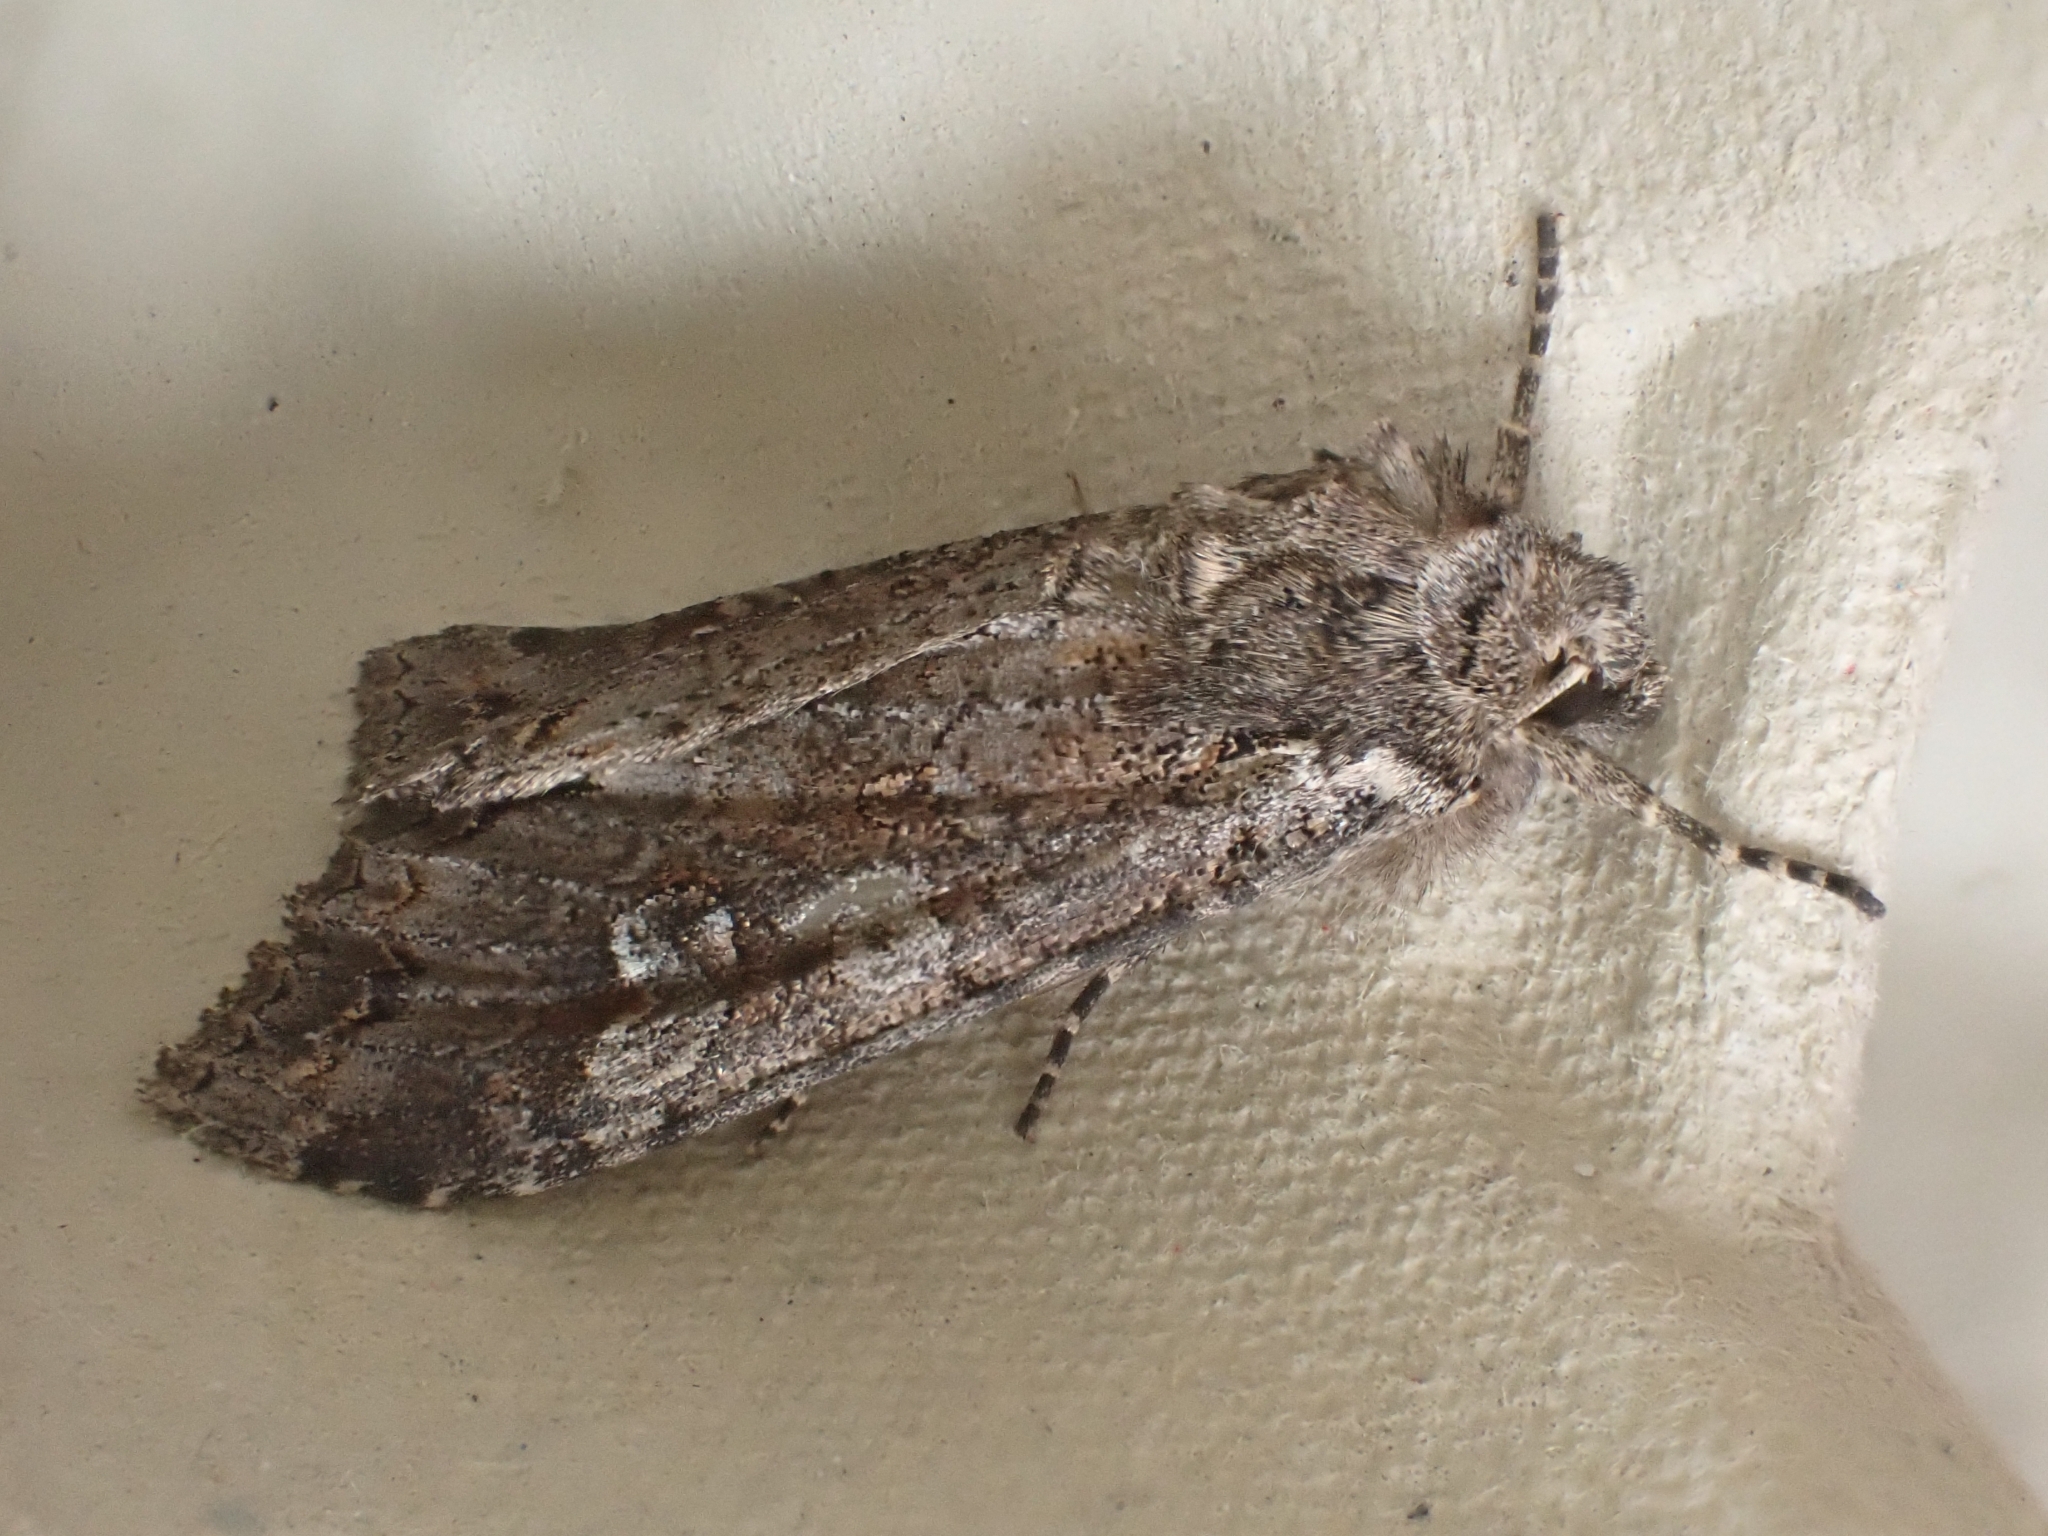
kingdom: Animalia
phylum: Arthropoda
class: Insecta
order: Lepidoptera
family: Noctuidae
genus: Polia
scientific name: Polia bombycina
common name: Pale shining brown
